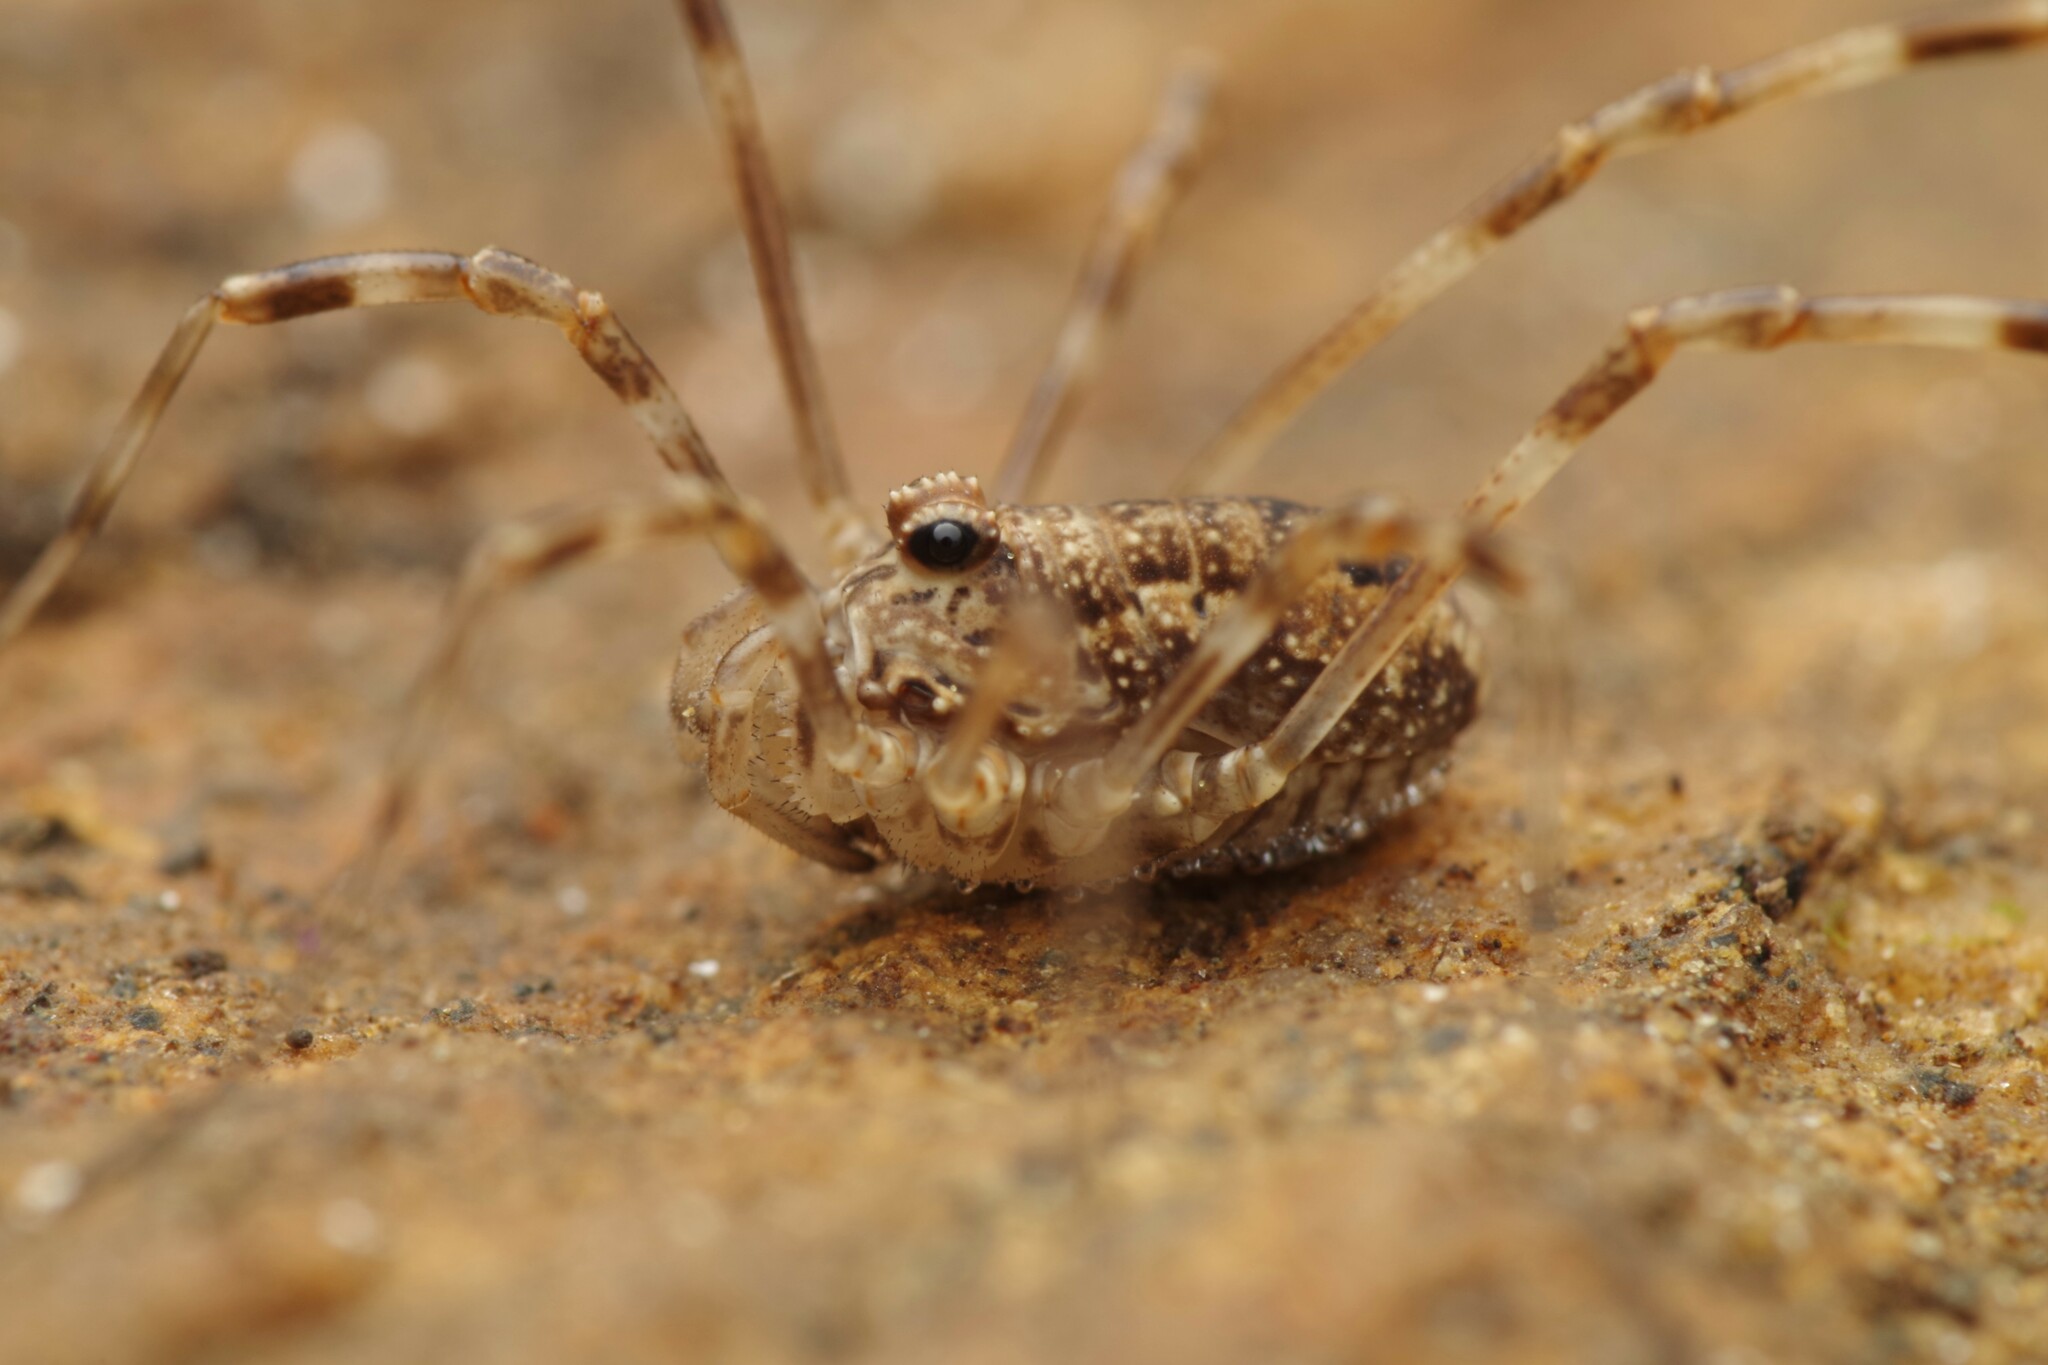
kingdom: Animalia
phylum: Arthropoda
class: Arachnida
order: Opiliones
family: Phalangiidae
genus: Rilaena
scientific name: Rilaena triangularis
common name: Spring harvestman
